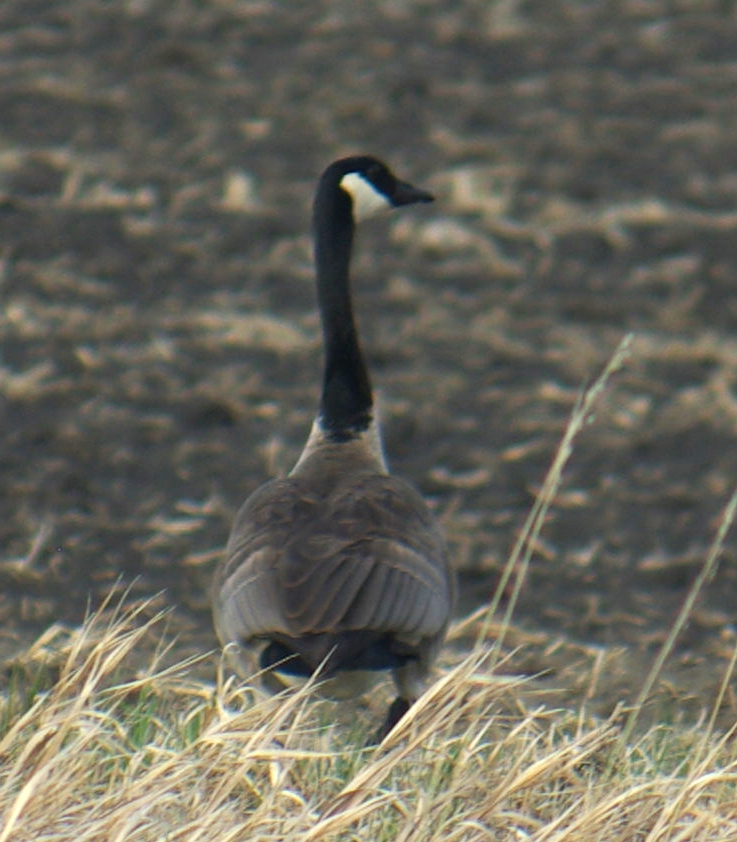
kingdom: Animalia
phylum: Chordata
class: Aves
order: Anseriformes
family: Anatidae
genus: Branta
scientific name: Branta canadensis
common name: Canada goose
